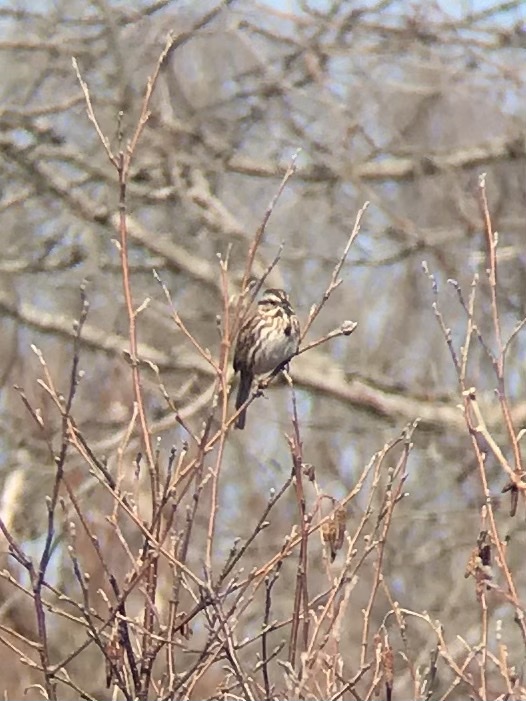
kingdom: Animalia
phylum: Chordata
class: Aves
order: Passeriformes
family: Passerellidae
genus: Melospiza
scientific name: Melospiza melodia
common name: Song sparrow
